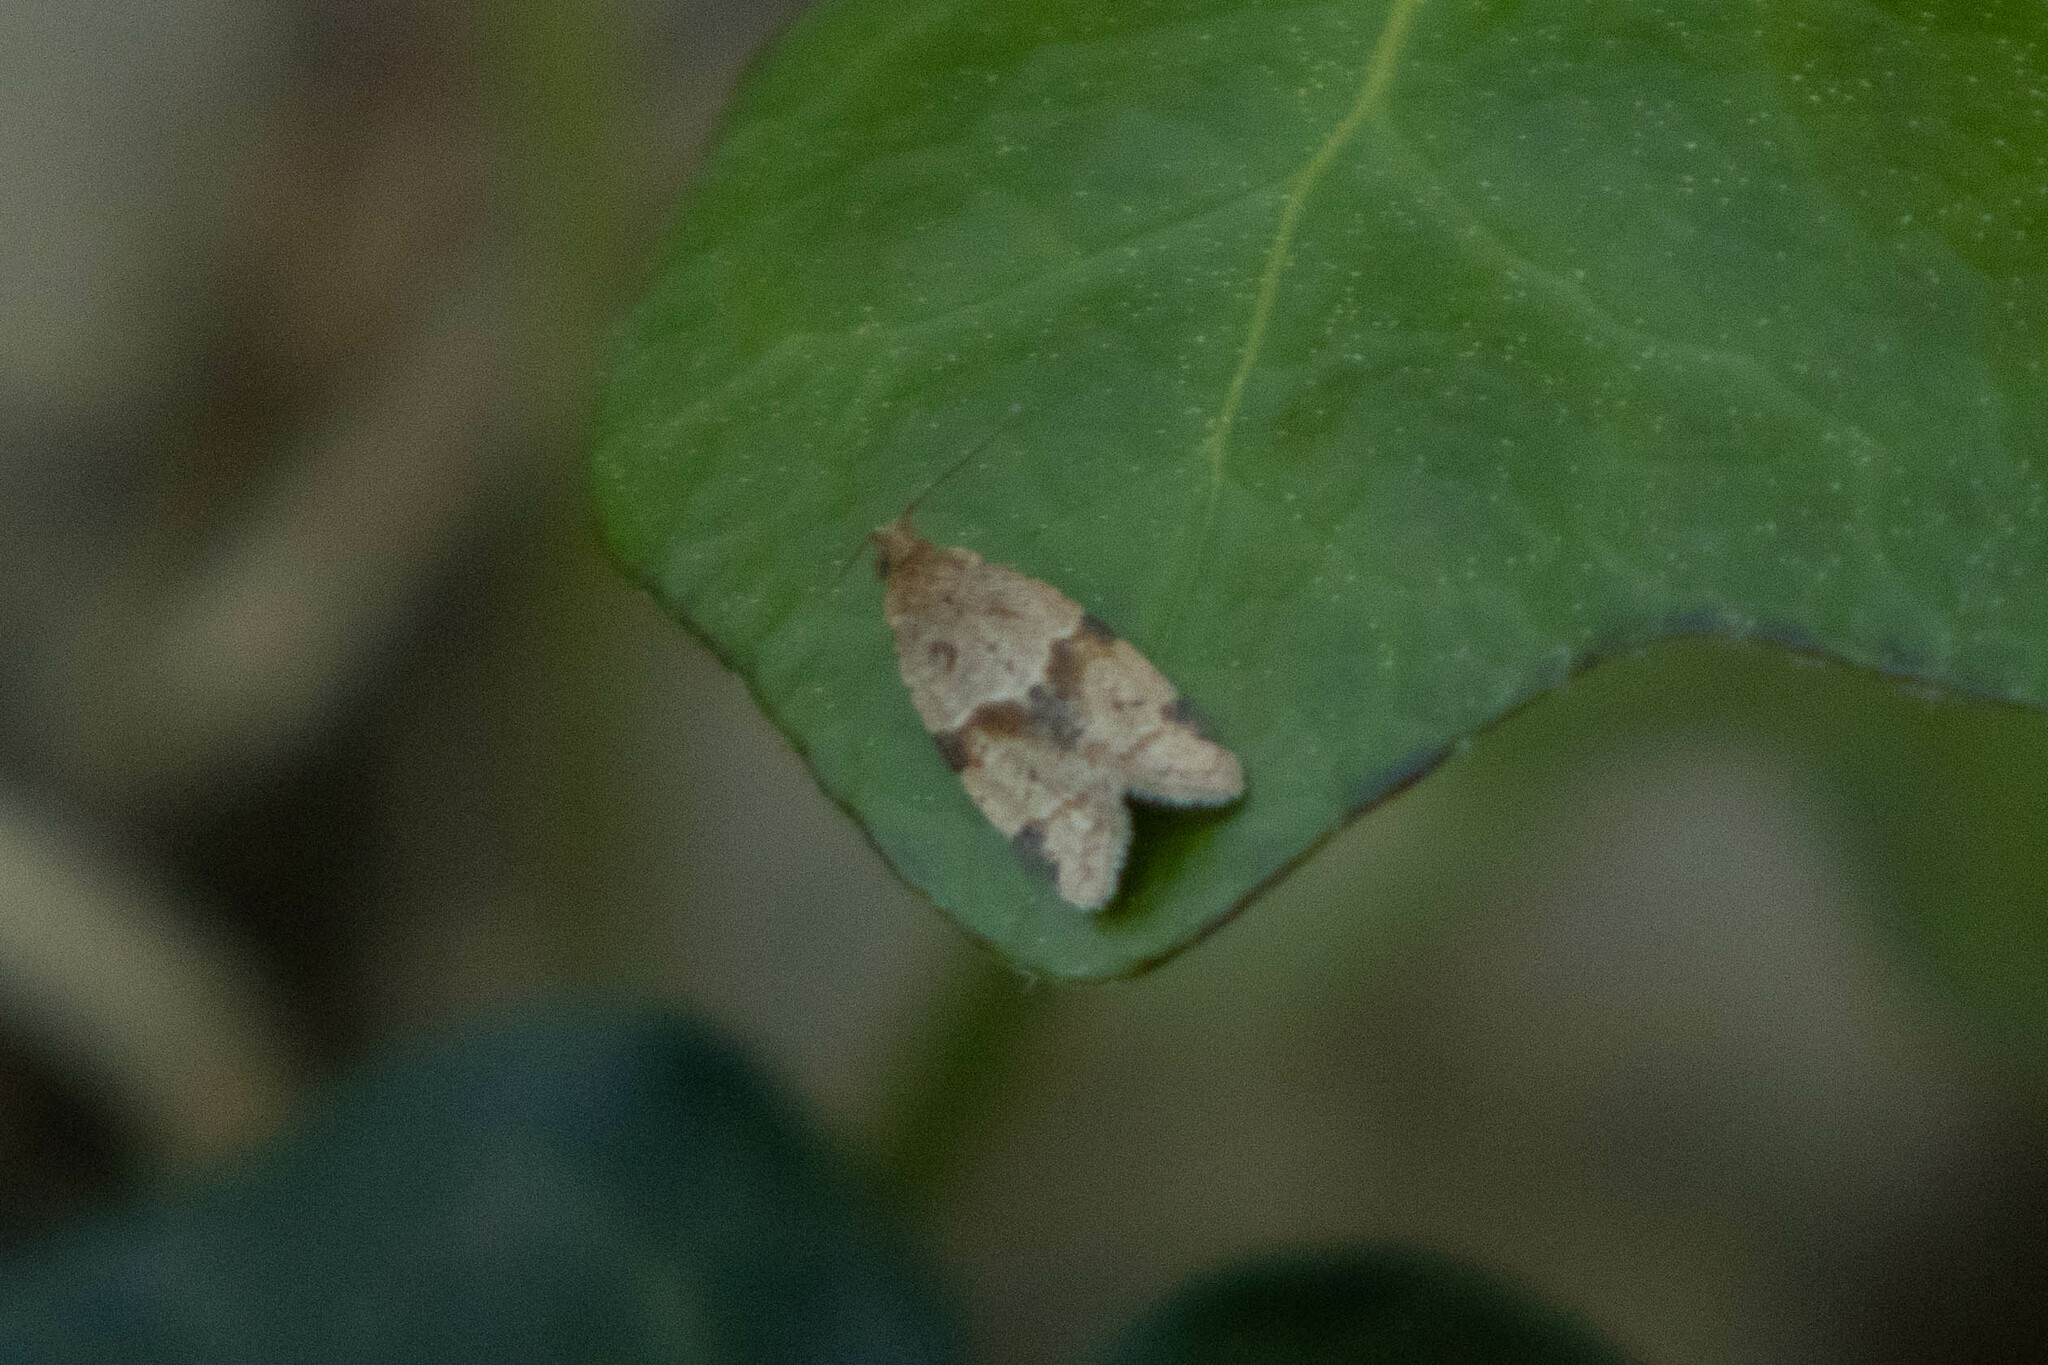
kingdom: Animalia
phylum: Arthropoda
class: Insecta
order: Lepidoptera
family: Tortricidae
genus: Clepsis
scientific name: Clepsis peritana
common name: Garden tortrix
